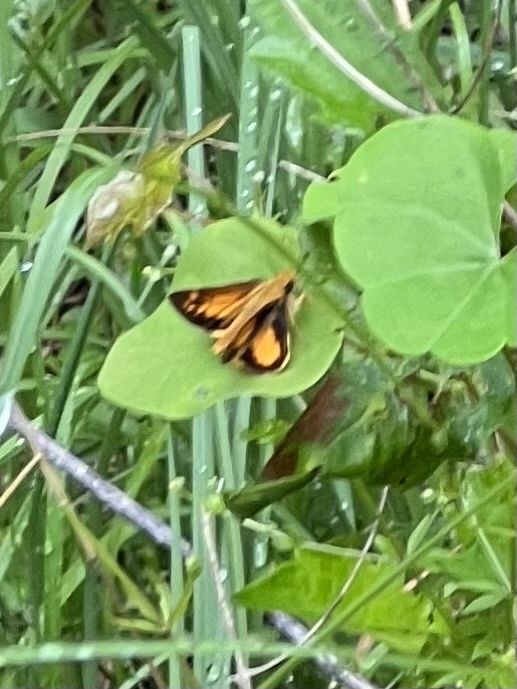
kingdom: Animalia
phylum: Arthropoda
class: Insecta
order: Lepidoptera
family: Hesperiidae
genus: Lon
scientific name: Lon zabulon
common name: Zabulon skipper
